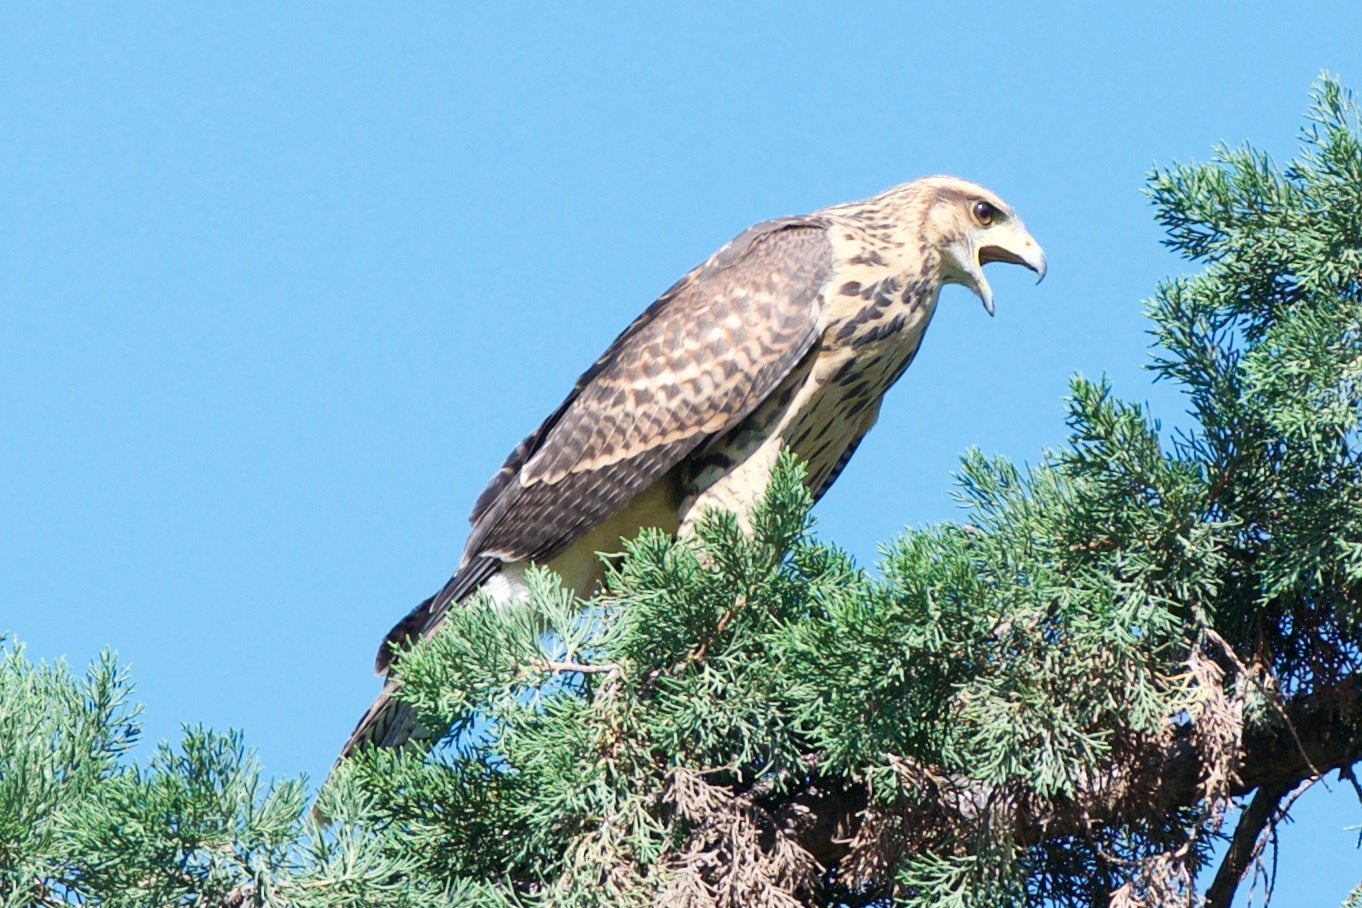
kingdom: Animalia
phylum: Chordata
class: Aves
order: Accipitriformes
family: Accipitridae
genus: Parabuteo
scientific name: Parabuteo unicinctus
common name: Harris's hawk
